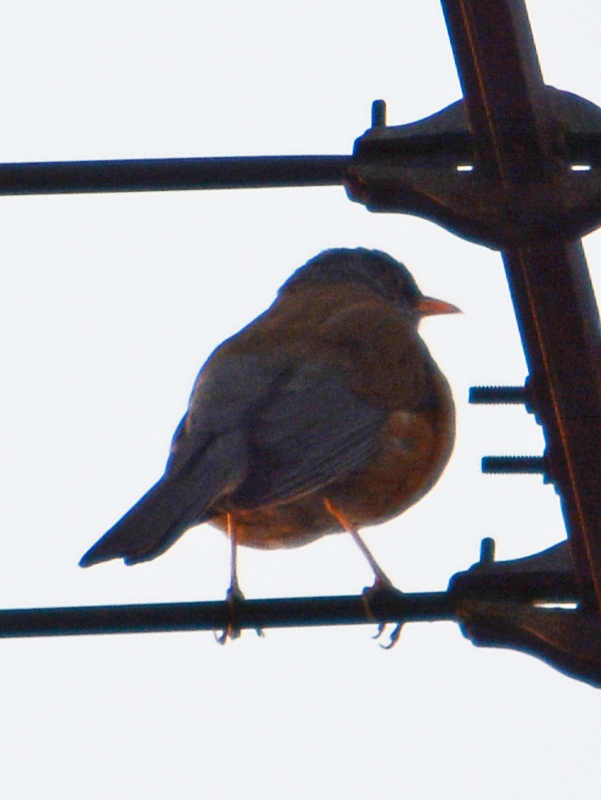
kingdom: Animalia
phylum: Chordata
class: Aves
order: Passeriformes
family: Turdidae
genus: Turdus
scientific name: Turdus rufopalliatus
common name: Rufous-backed robin
